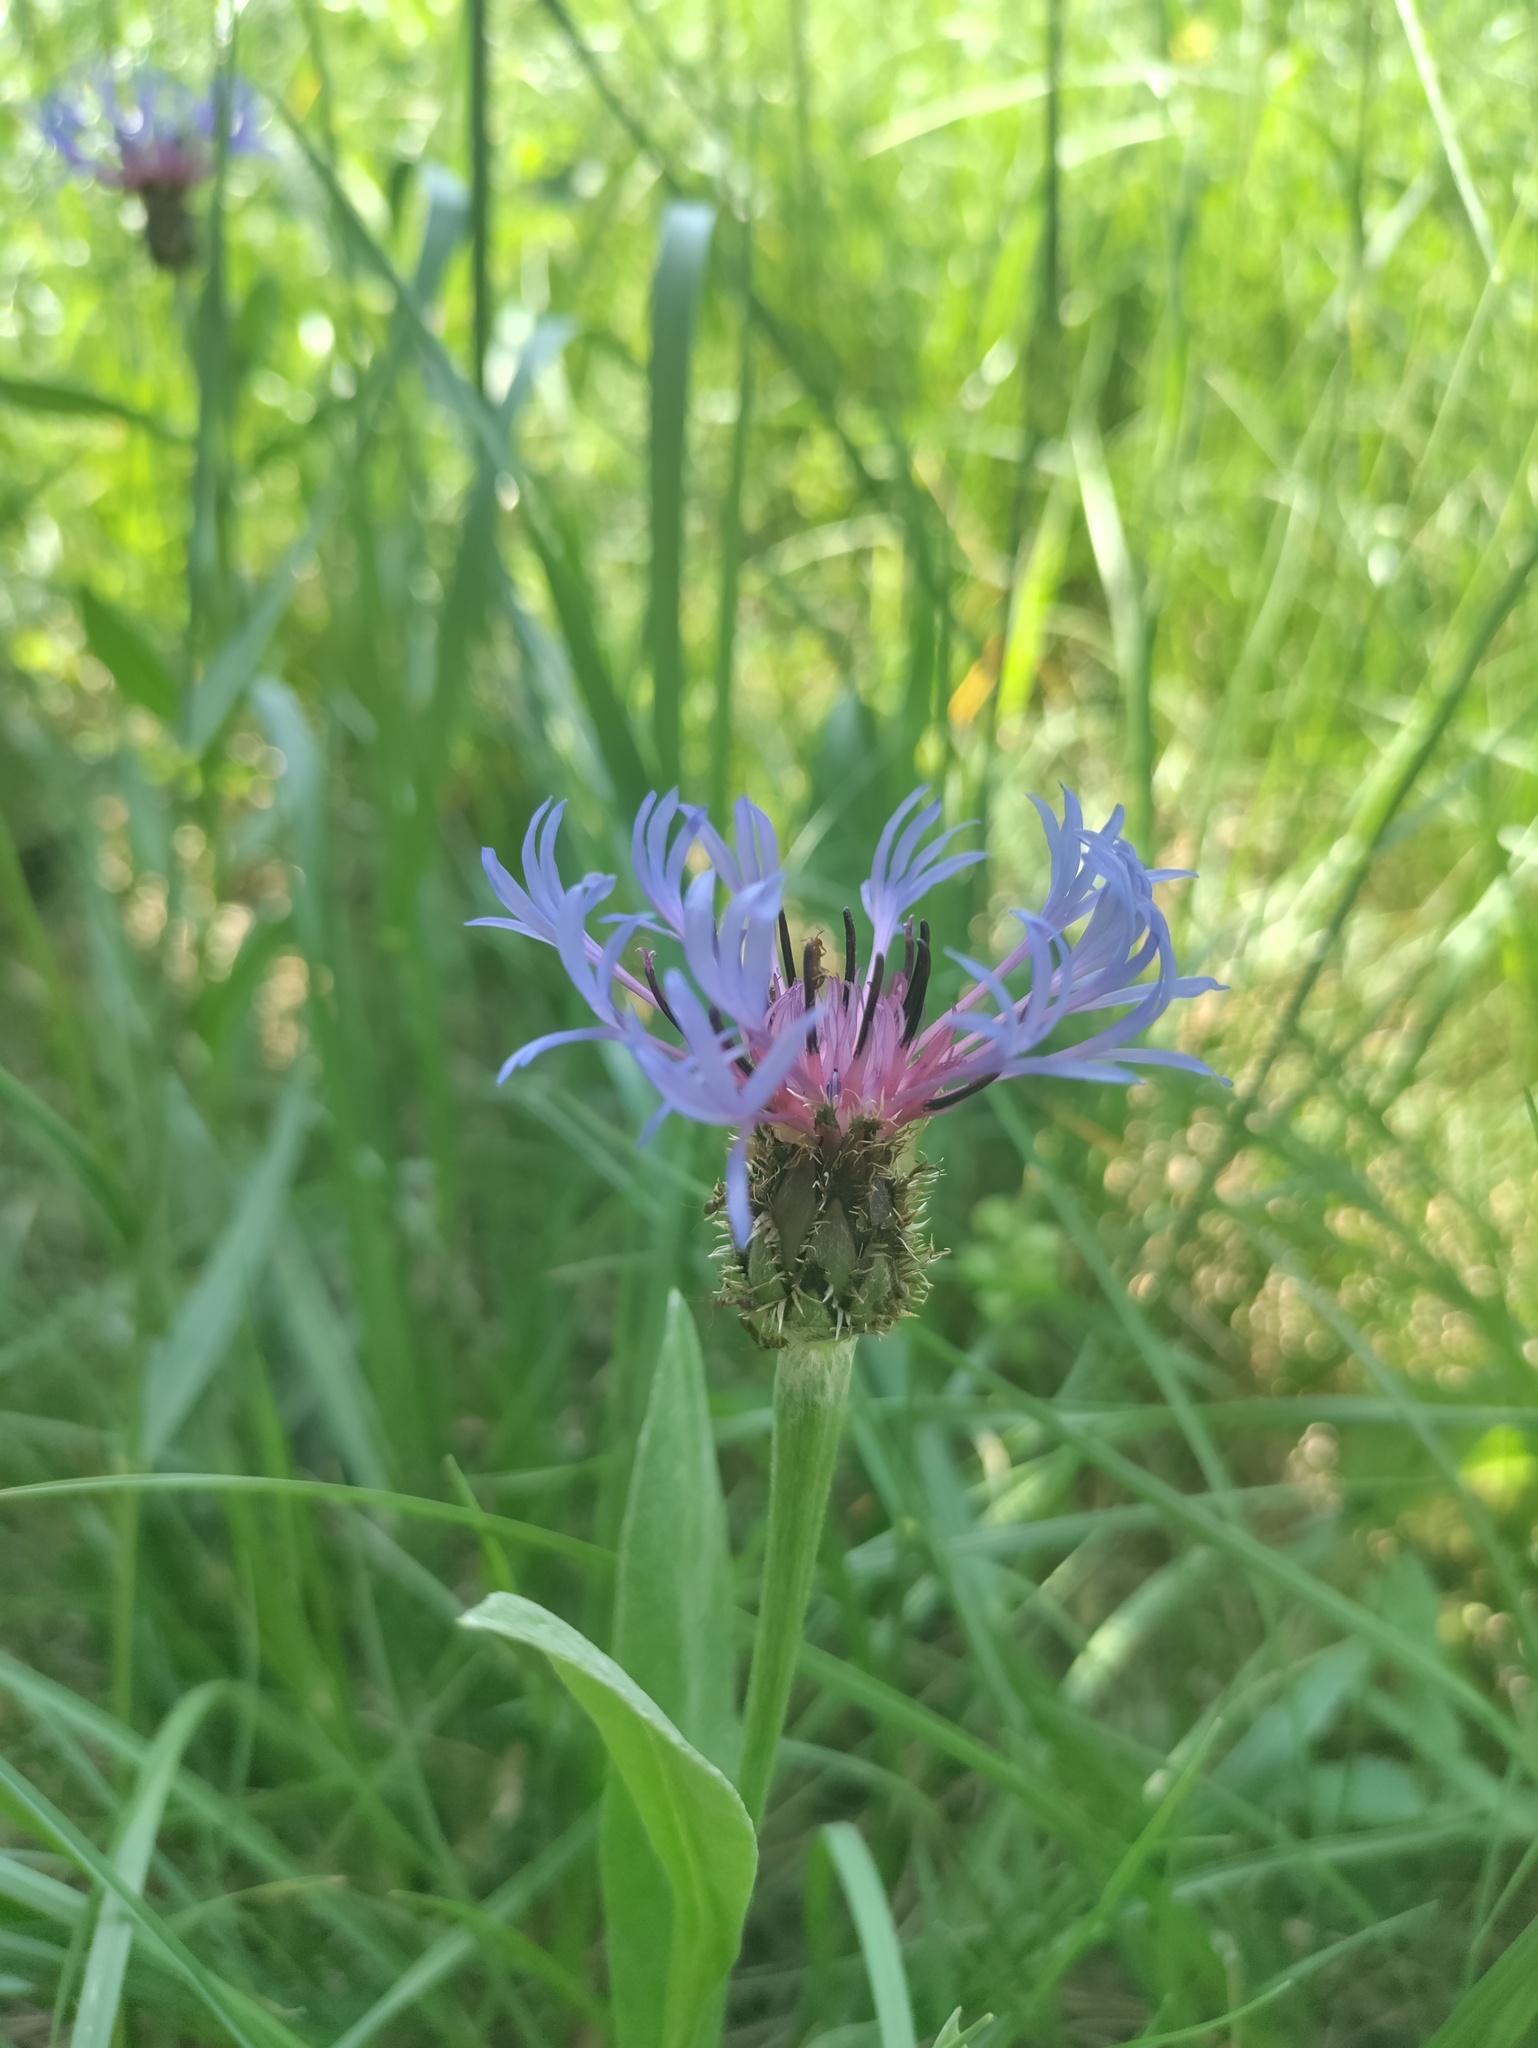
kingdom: Plantae
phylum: Tracheophyta
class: Magnoliopsida
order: Asterales
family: Asteraceae
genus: Centaurea
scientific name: Centaurea triumfettii
